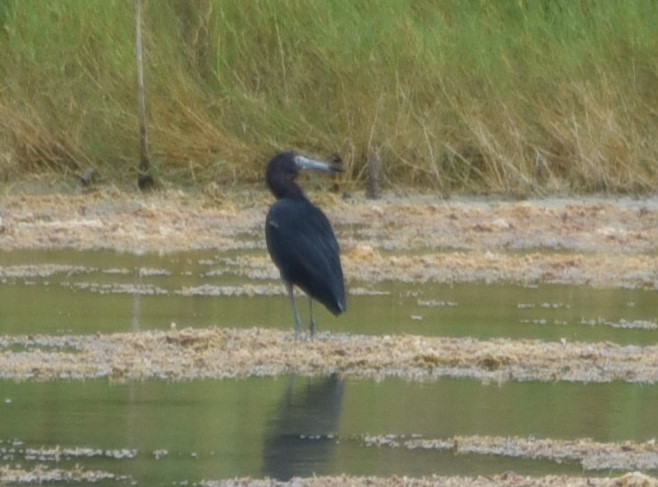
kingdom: Animalia
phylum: Chordata
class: Aves
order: Pelecaniformes
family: Ardeidae
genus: Egretta
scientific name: Egretta caerulea
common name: Little blue heron
